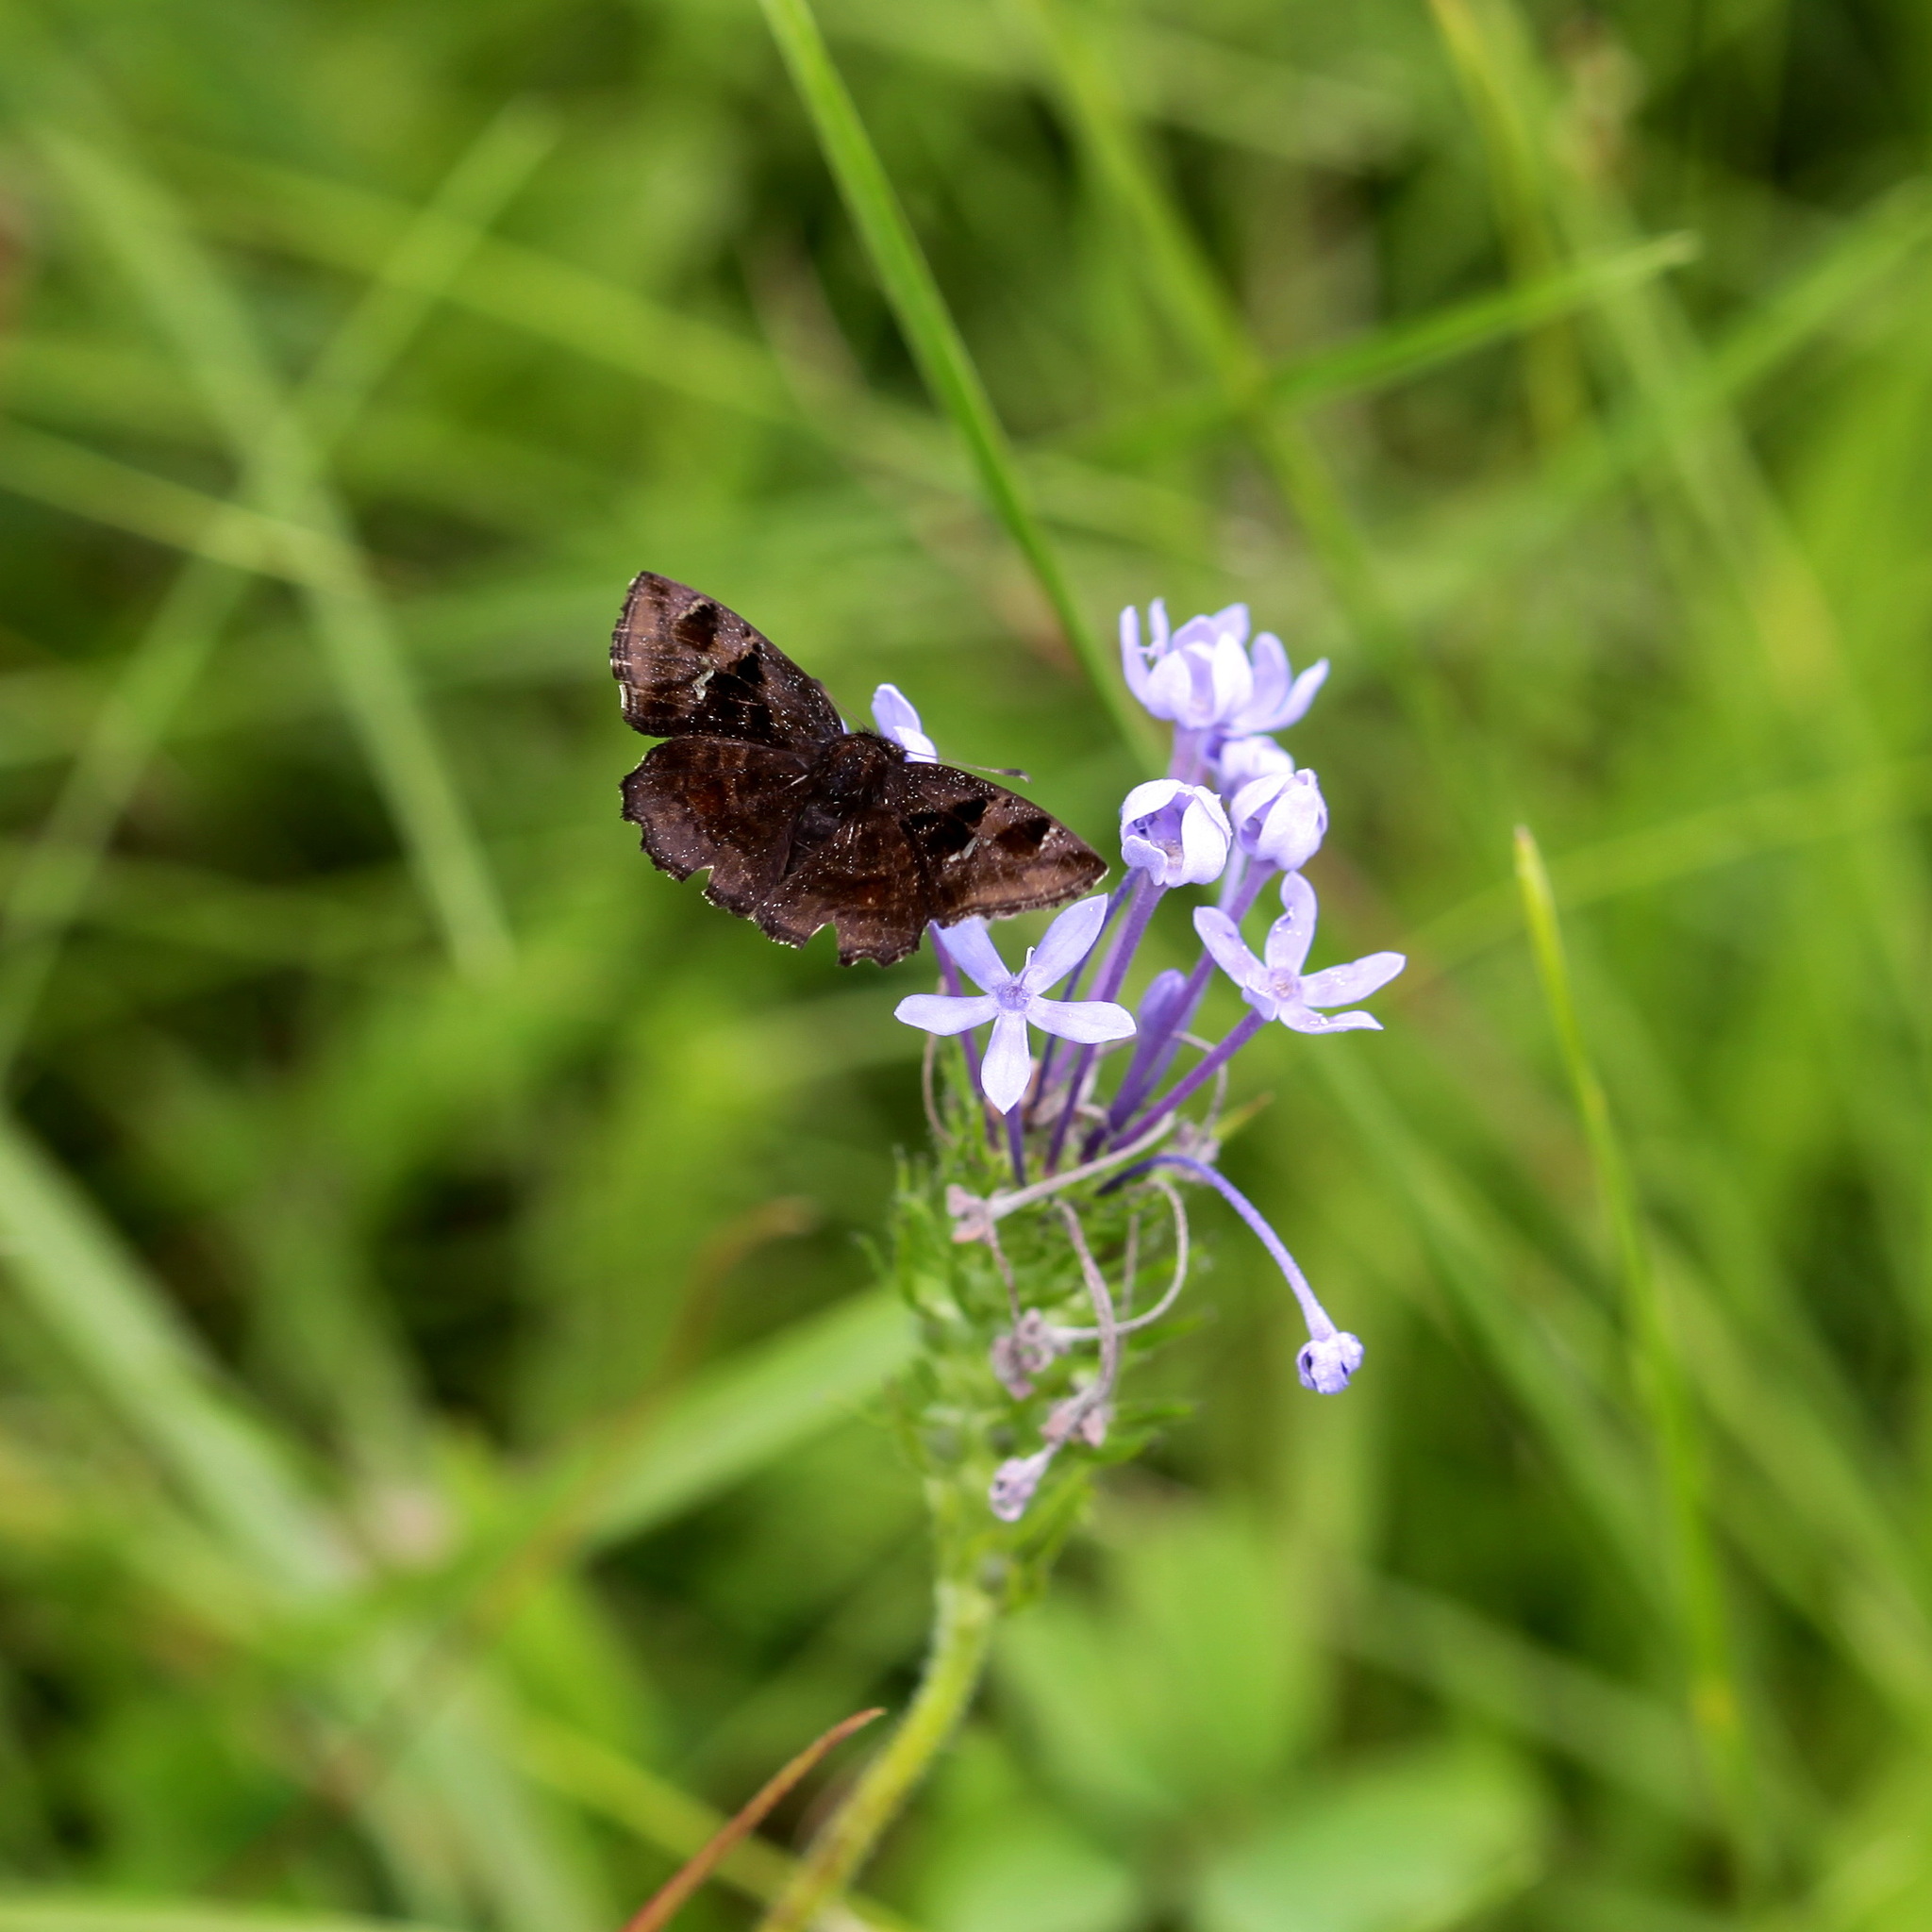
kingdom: Animalia
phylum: Arthropoda
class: Insecta
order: Lepidoptera
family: Hesperiidae
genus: Eretis
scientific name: Eretis
